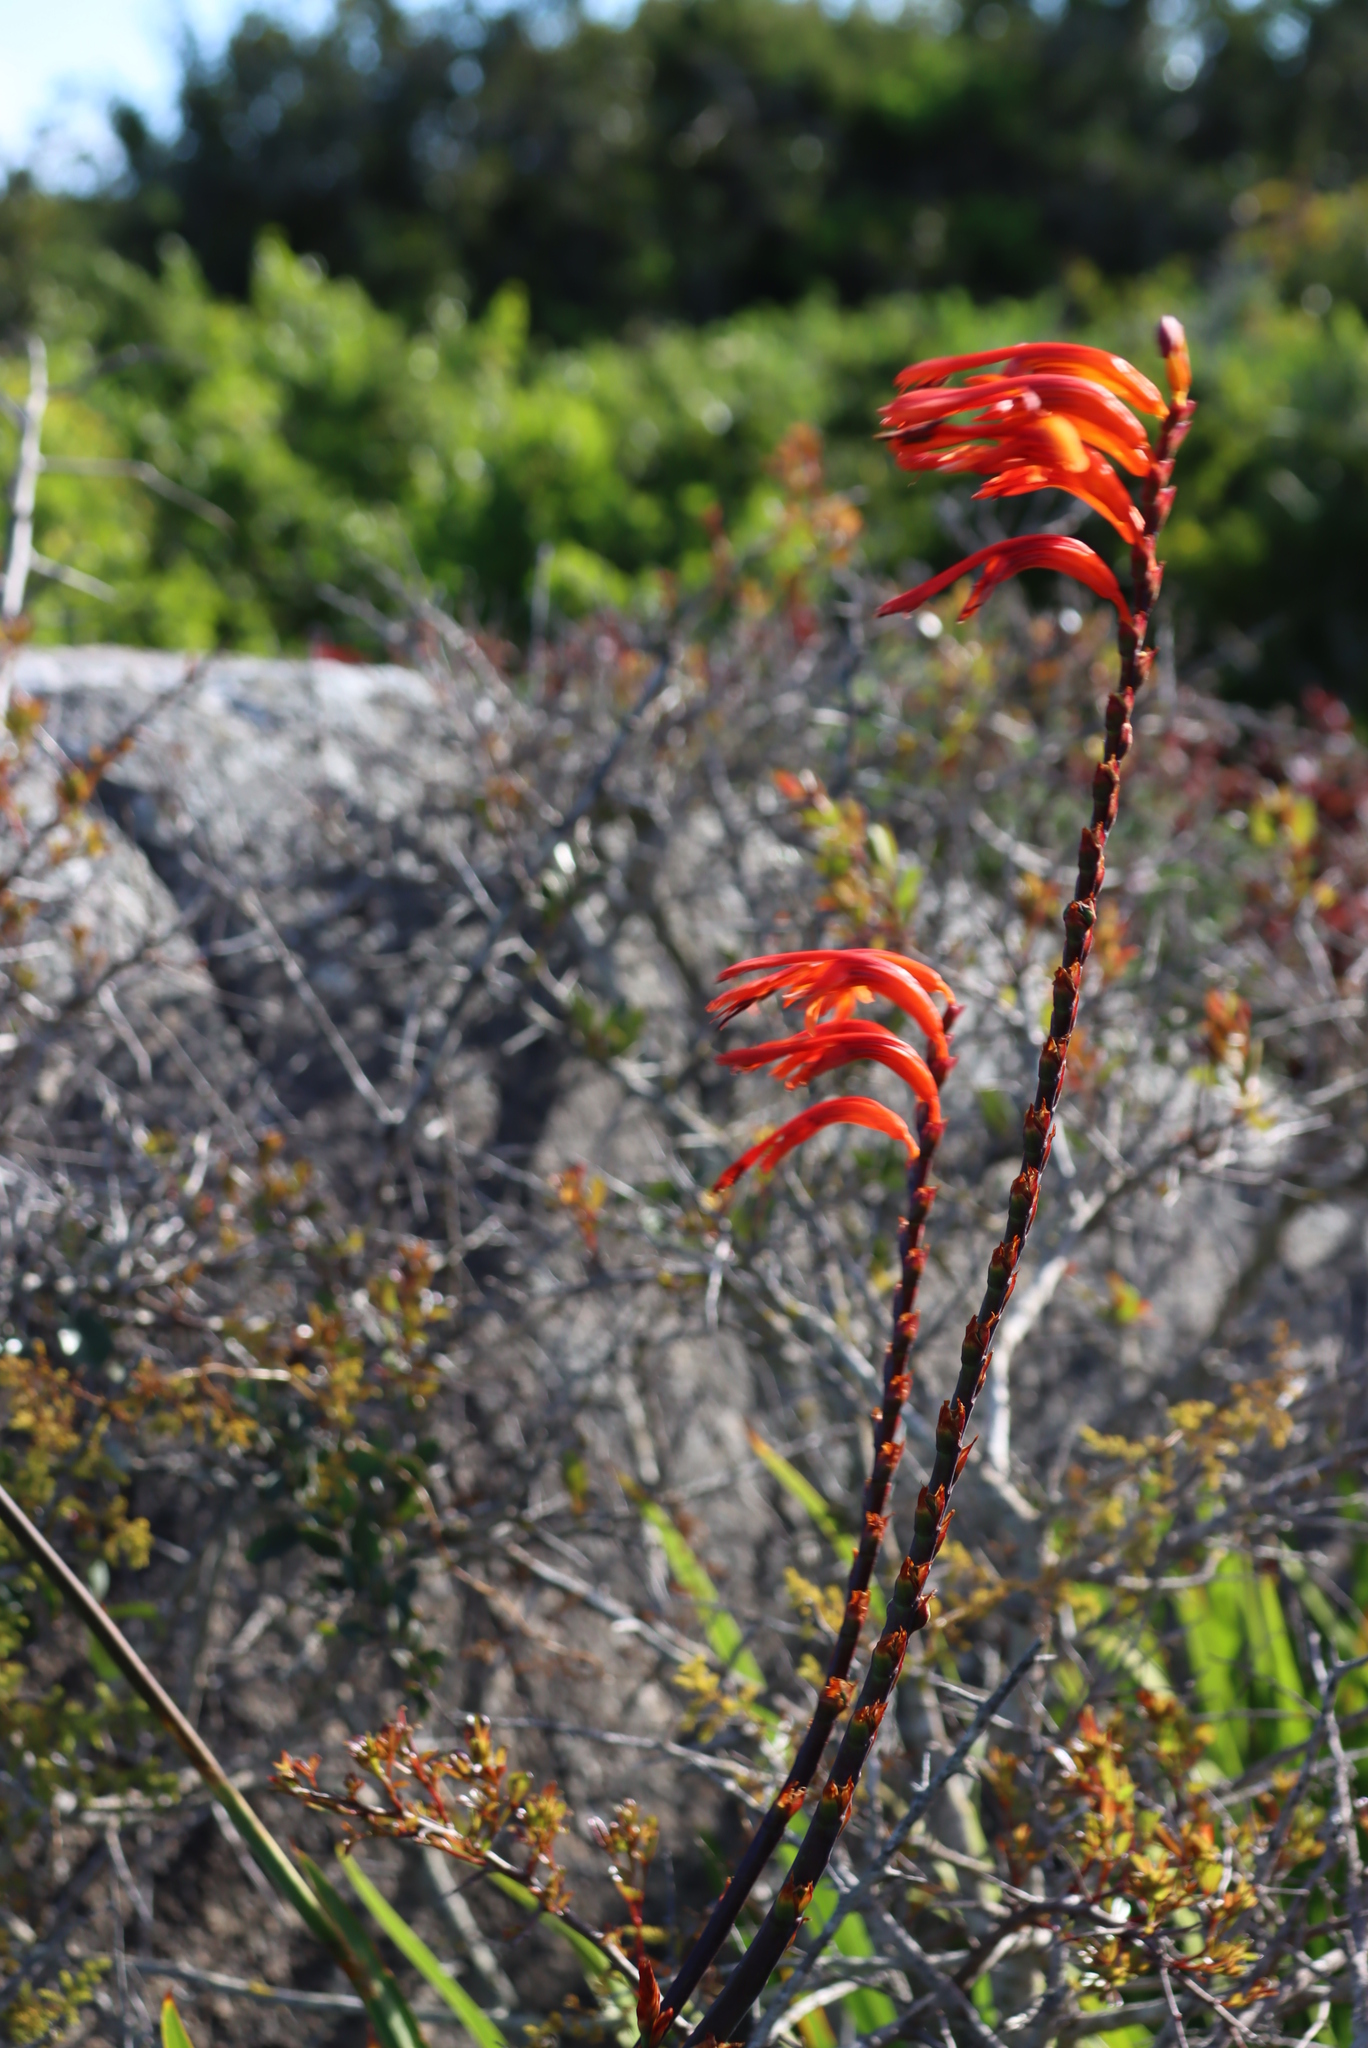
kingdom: Plantae
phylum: Tracheophyta
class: Liliopsida
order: Asparagales
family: Iridaceae
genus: Chasmanthe
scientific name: Chasmanthe floribunda
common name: African cornflag
